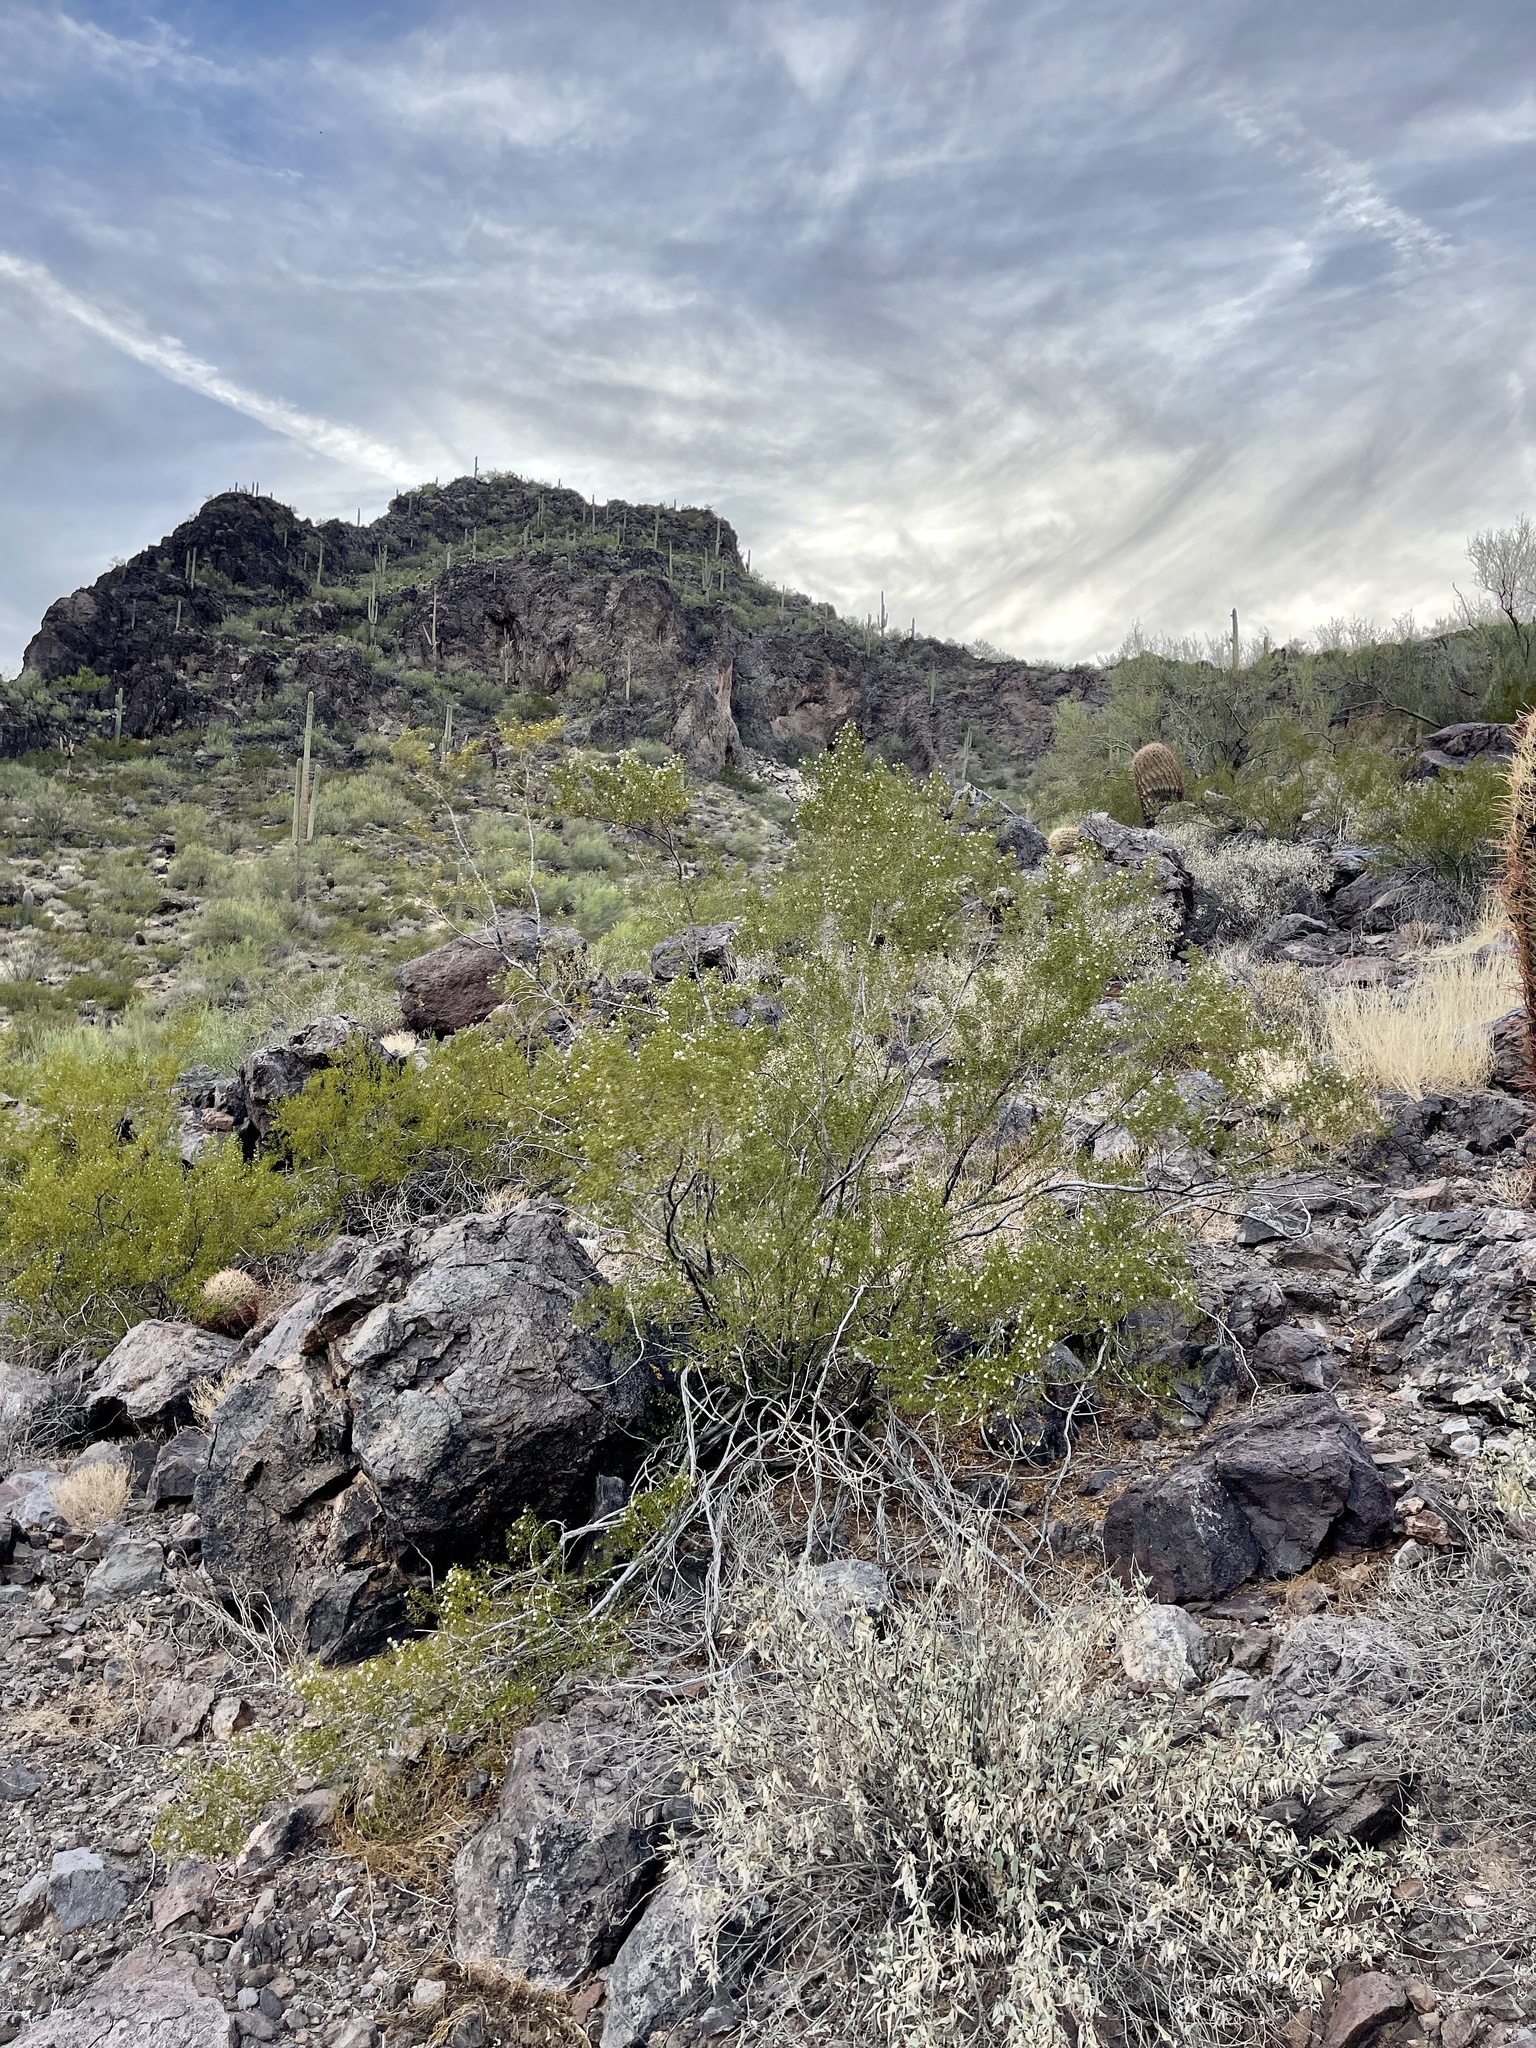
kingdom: Plantae
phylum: Tracheophyta
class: Magnoliopsida
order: Zygophyllales
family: Zygophyllaceae
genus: Larrea
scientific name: Larrea tridentata
